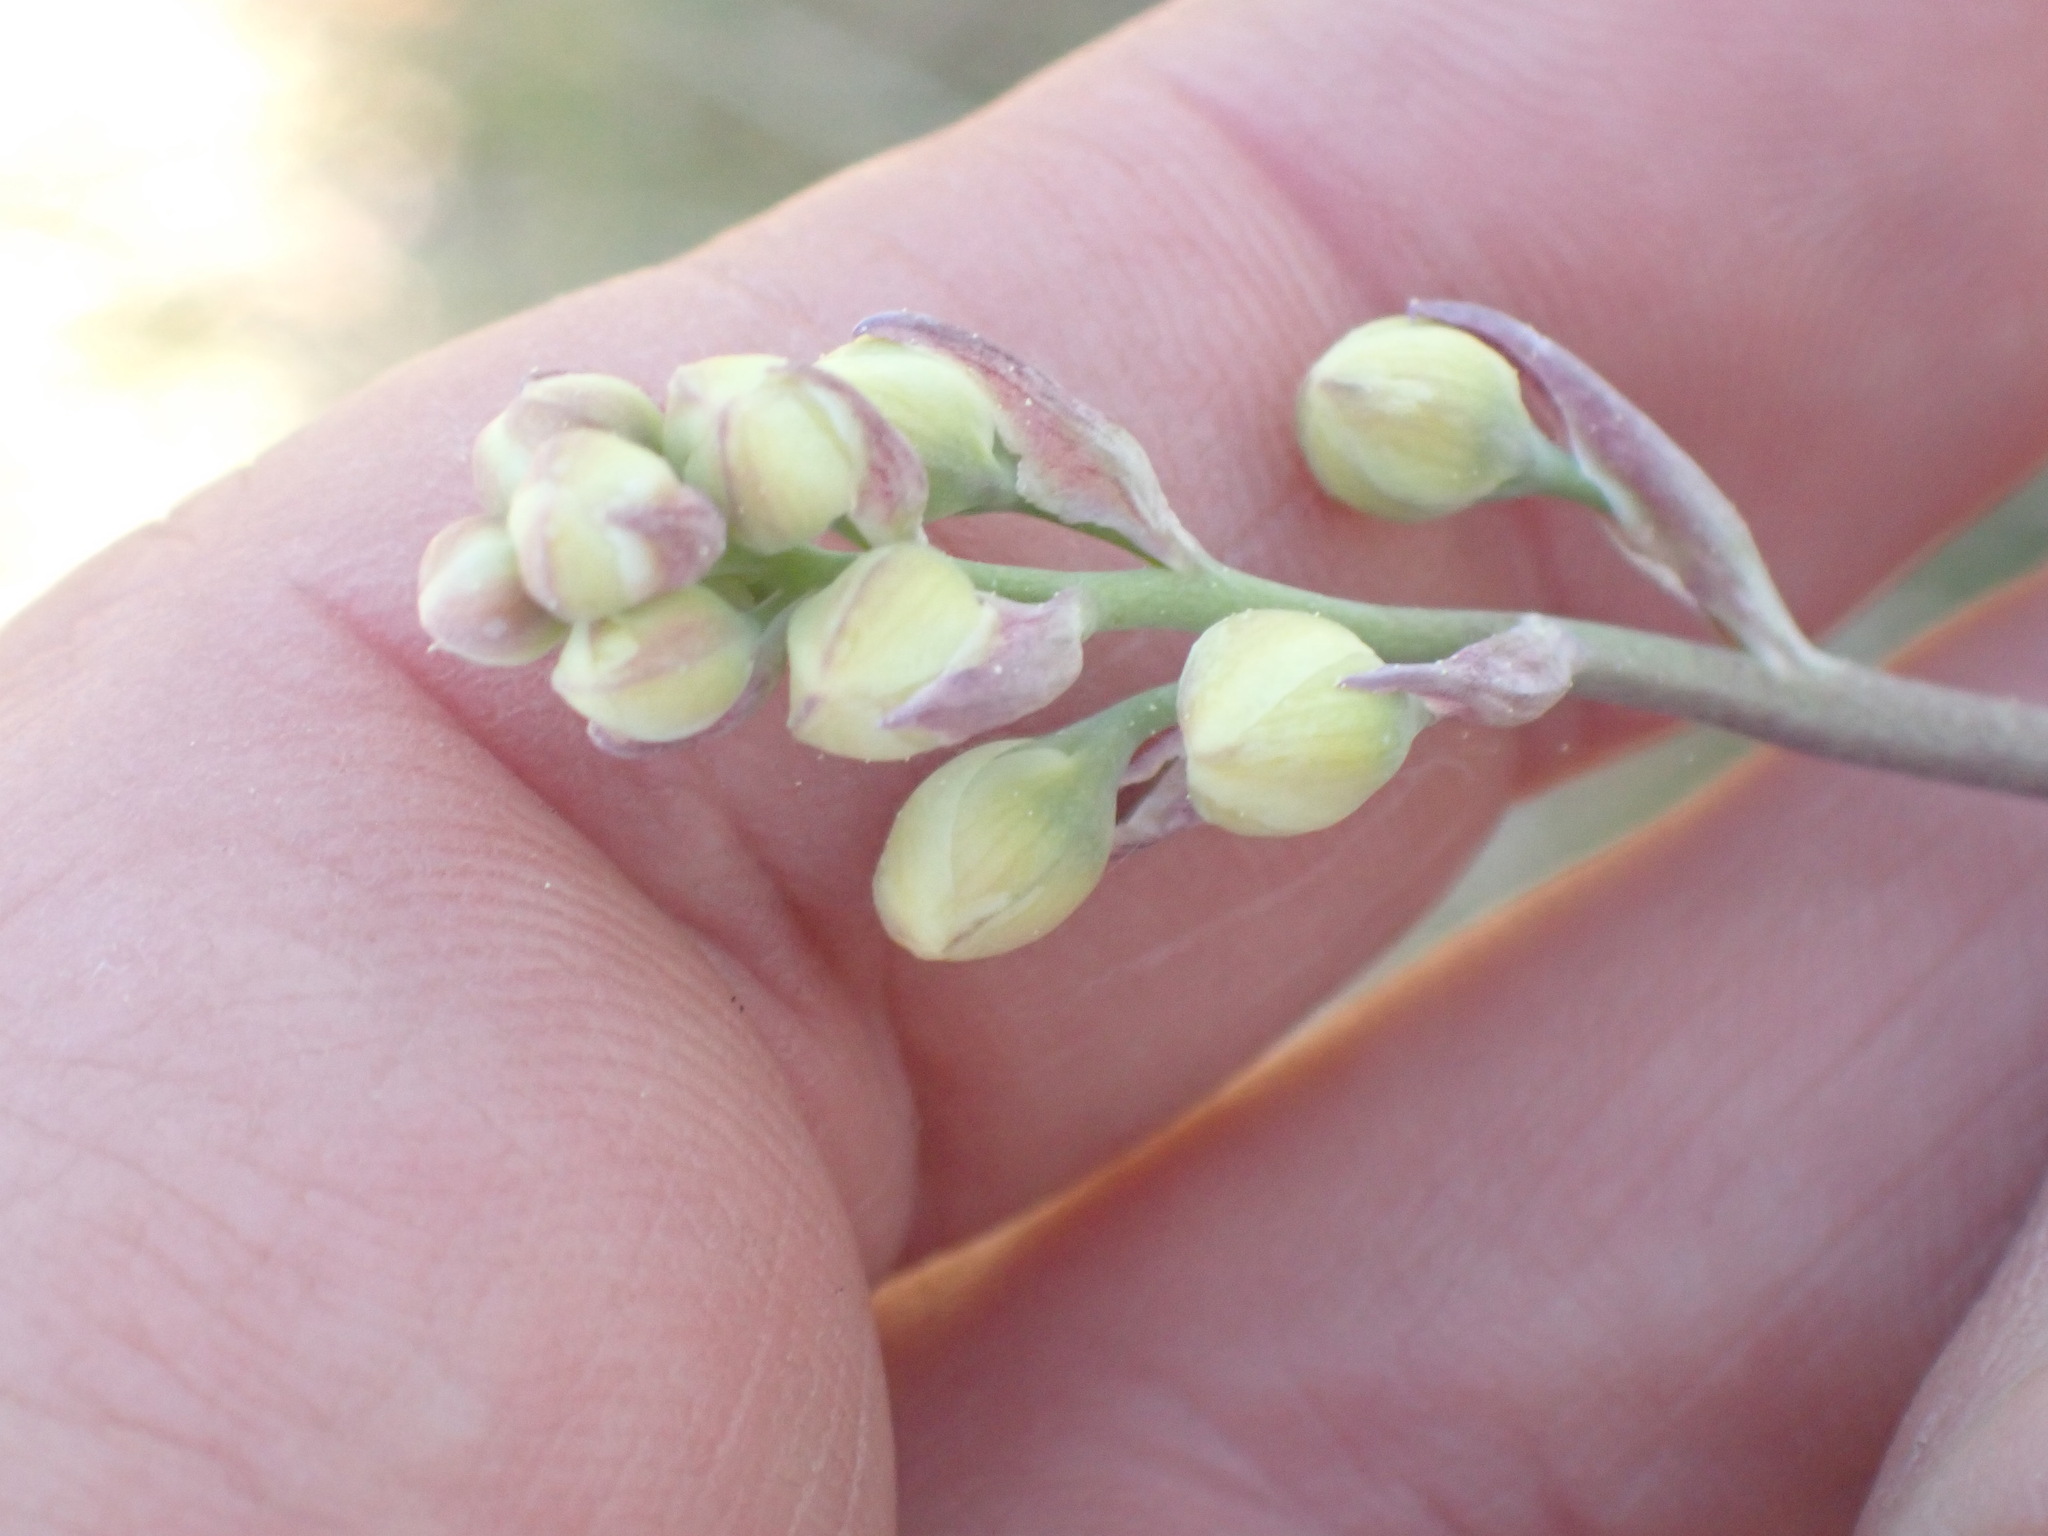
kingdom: Plantae
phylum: Tracheophyta
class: Liliopsida
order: Liliales
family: Melanthiaceae
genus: Anticlea
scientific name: Anticlea elegans
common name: Mountain death camas
